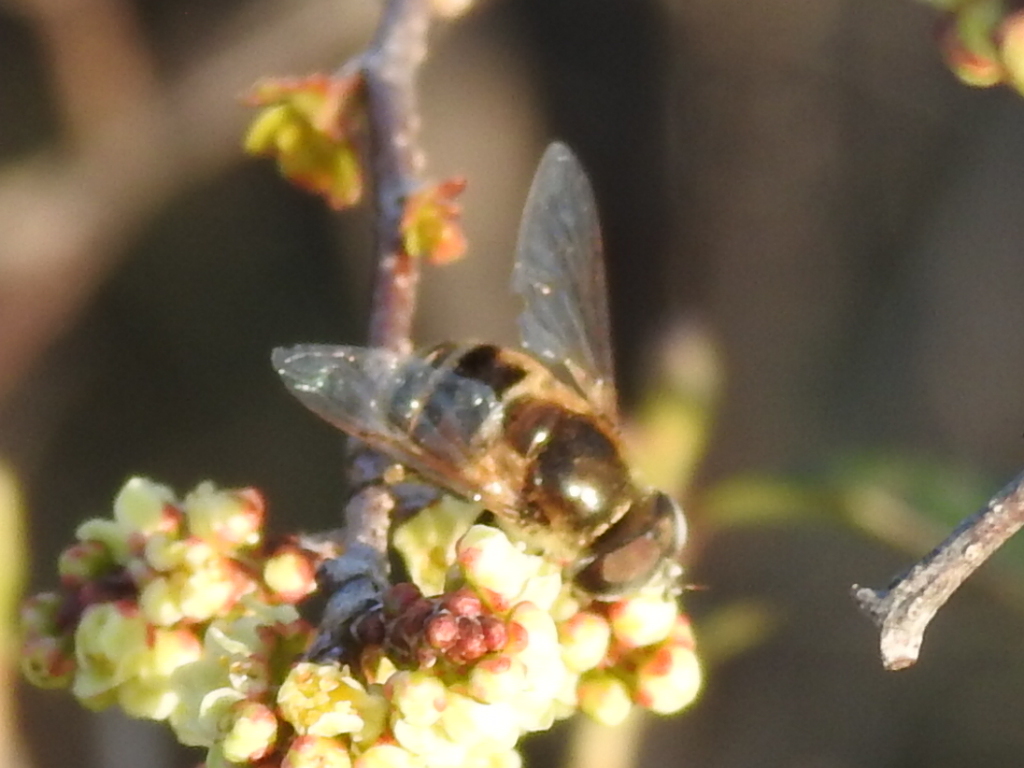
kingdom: Animalia
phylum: Arthropoda
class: Insecta
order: Diptera
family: Syrphidae
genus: Eristalis
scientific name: Eristalis stipator
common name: Yellow-shouldered drone fly
